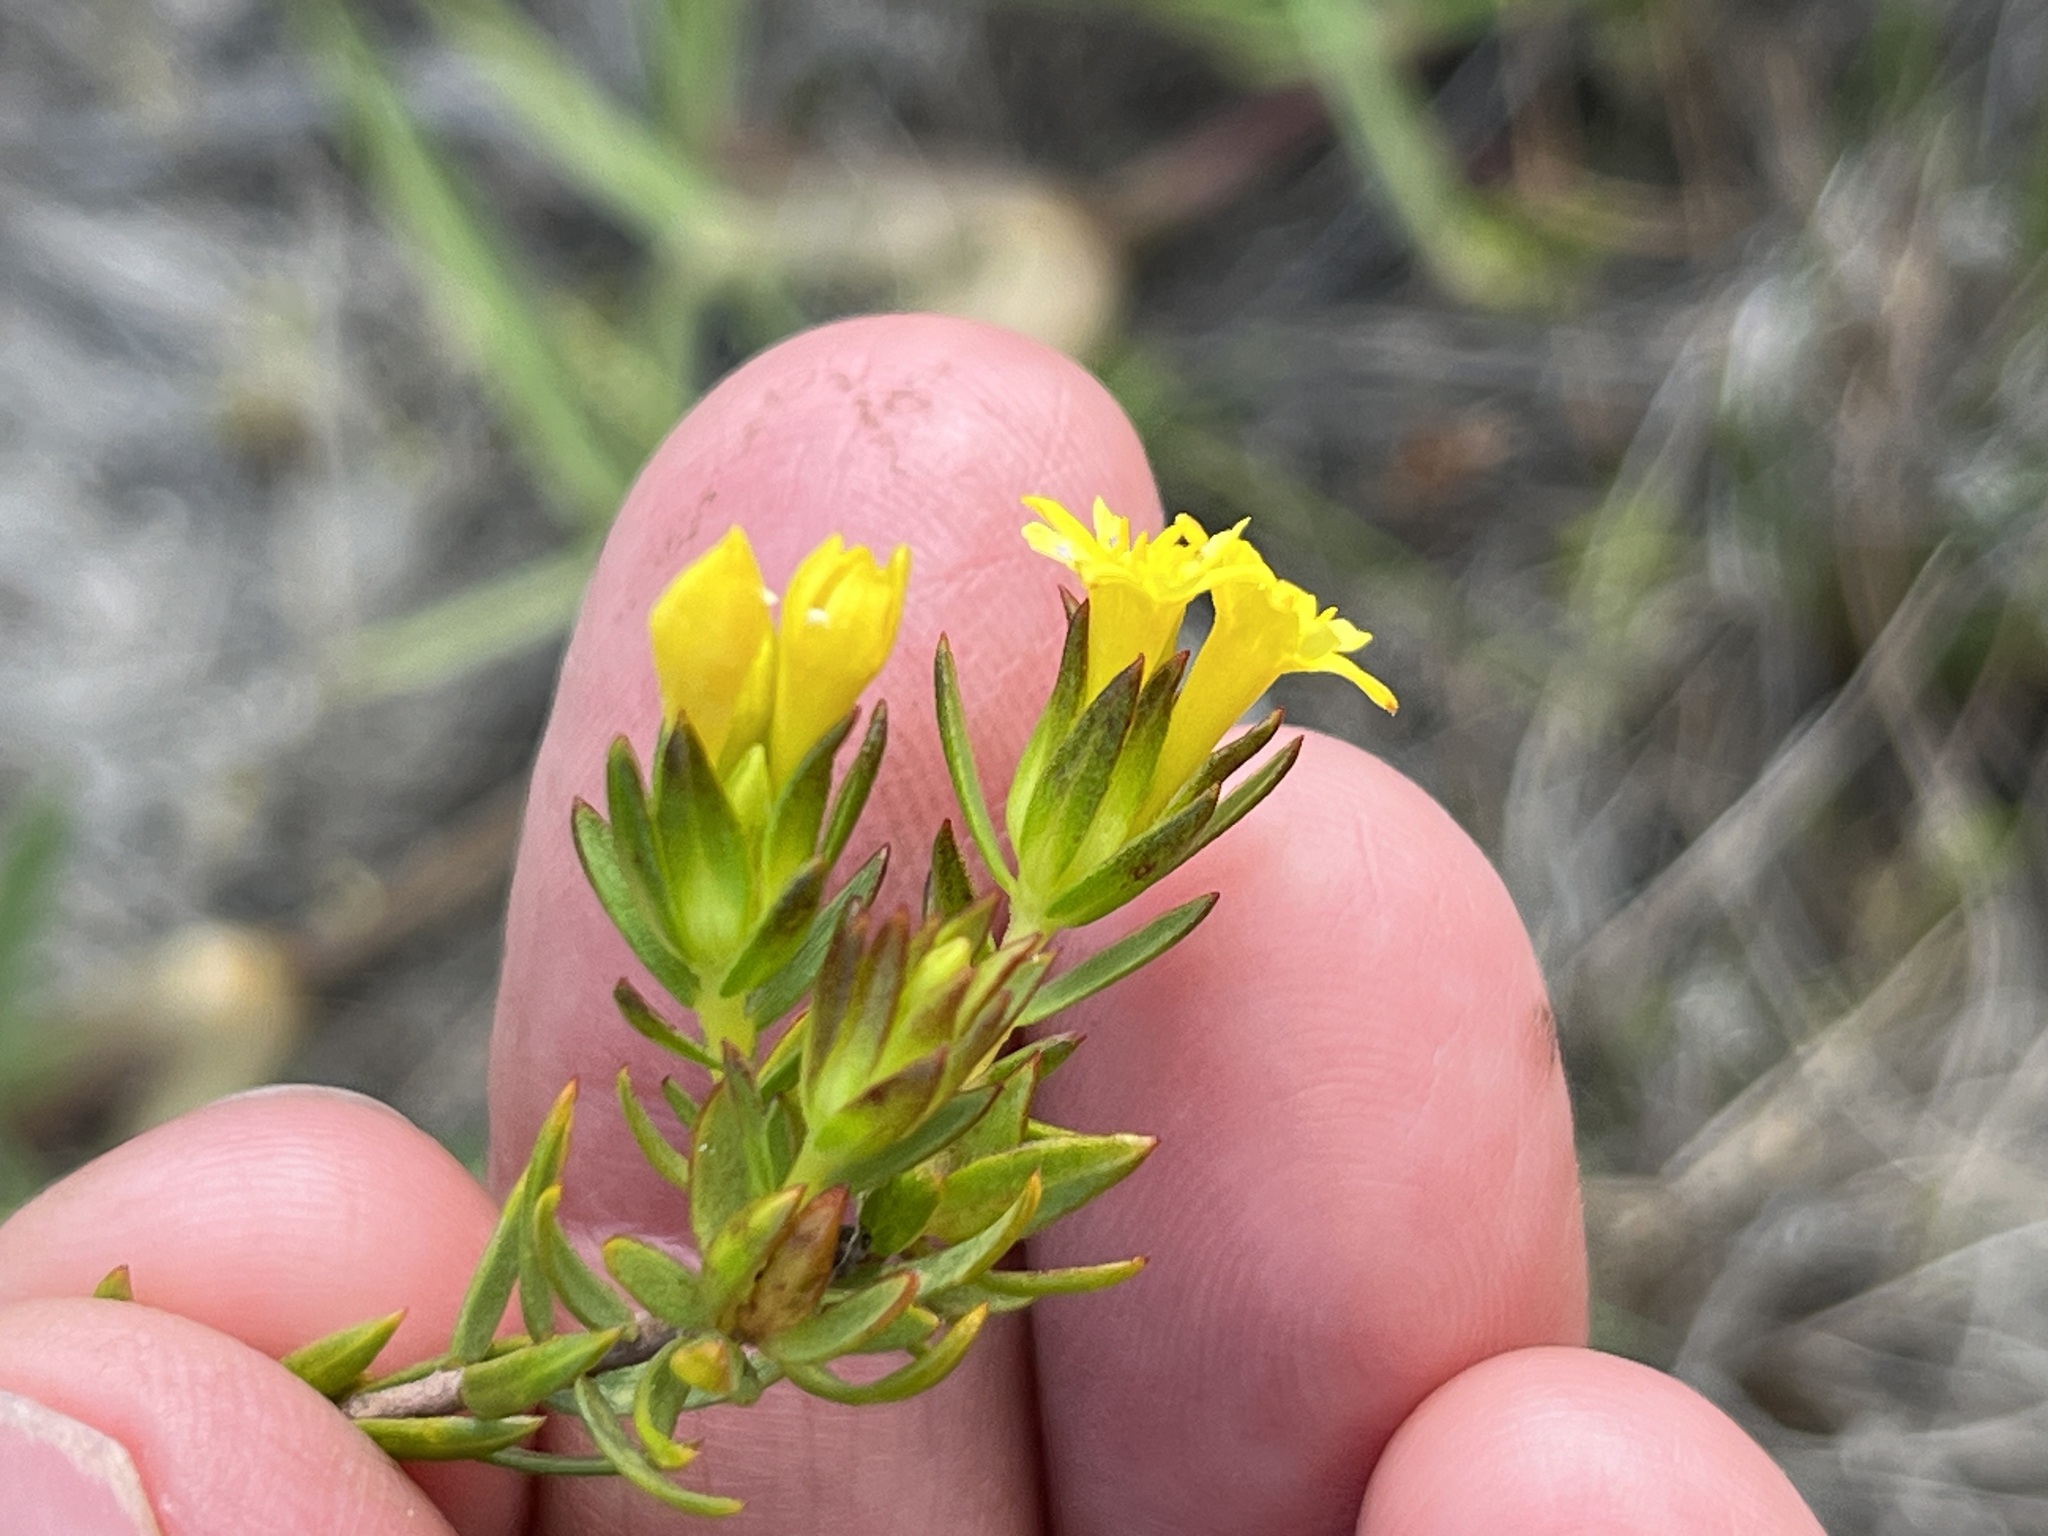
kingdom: Plantae
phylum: Tracheophyta
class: Magnoliopsida
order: Malvales
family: Thymelaeaceae
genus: Gnidia
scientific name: Gnidia juniperifolia
